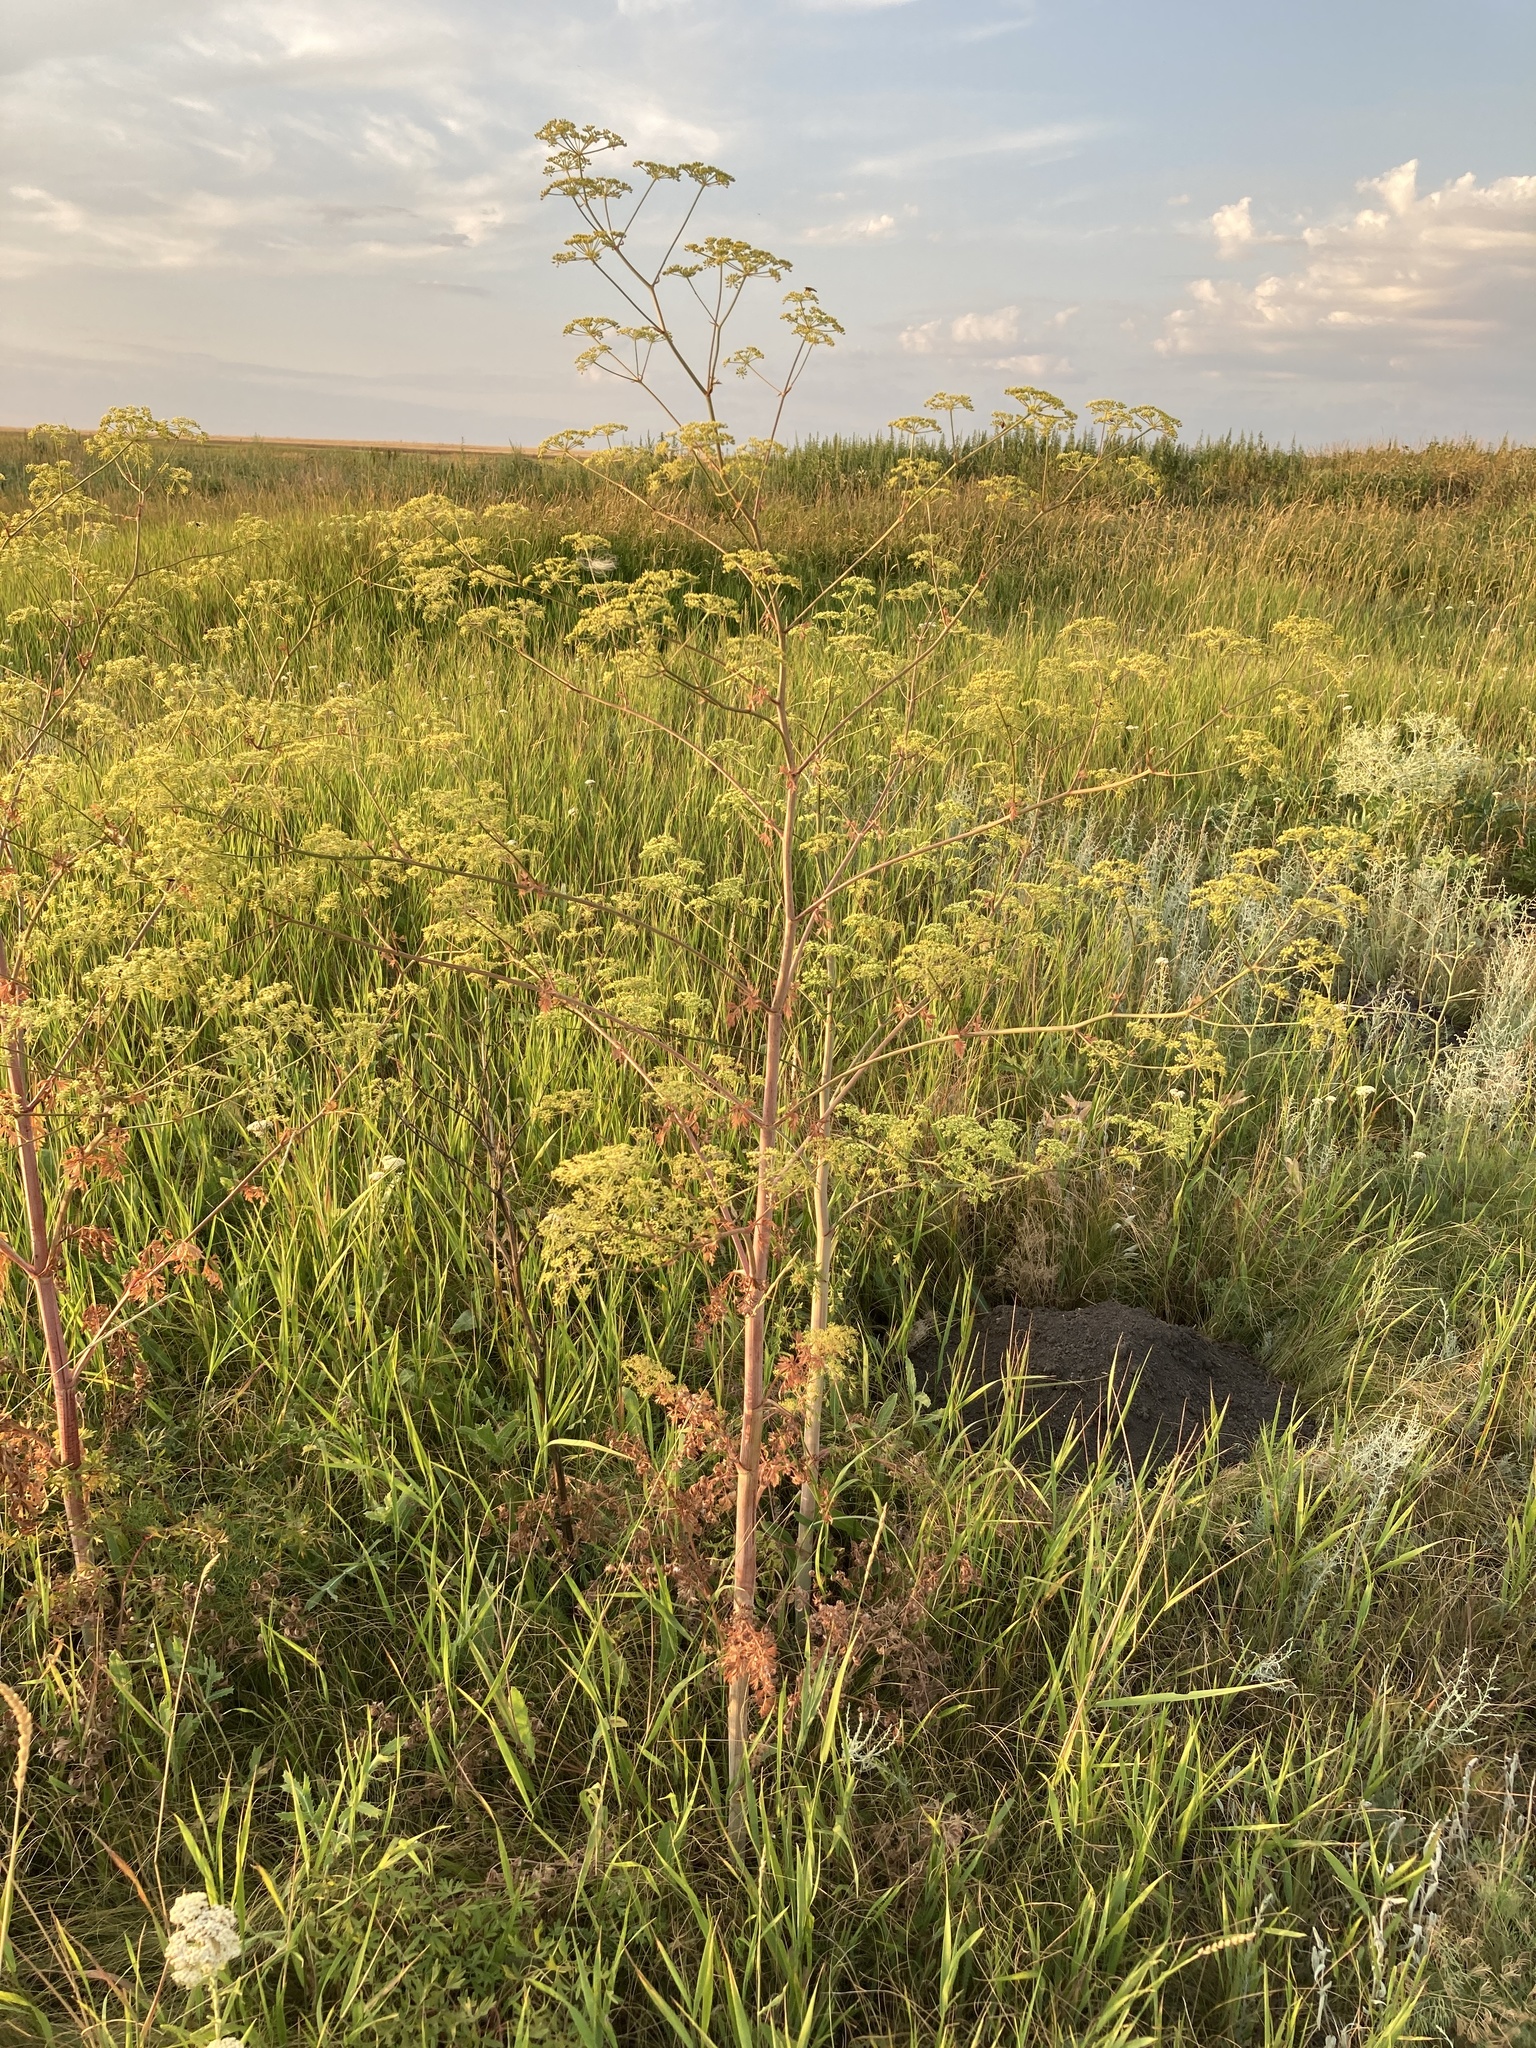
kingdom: Plantae
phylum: Tracheophyta
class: Magnoliopsida
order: Apiales
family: Apiaceae
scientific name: Apiaceae
